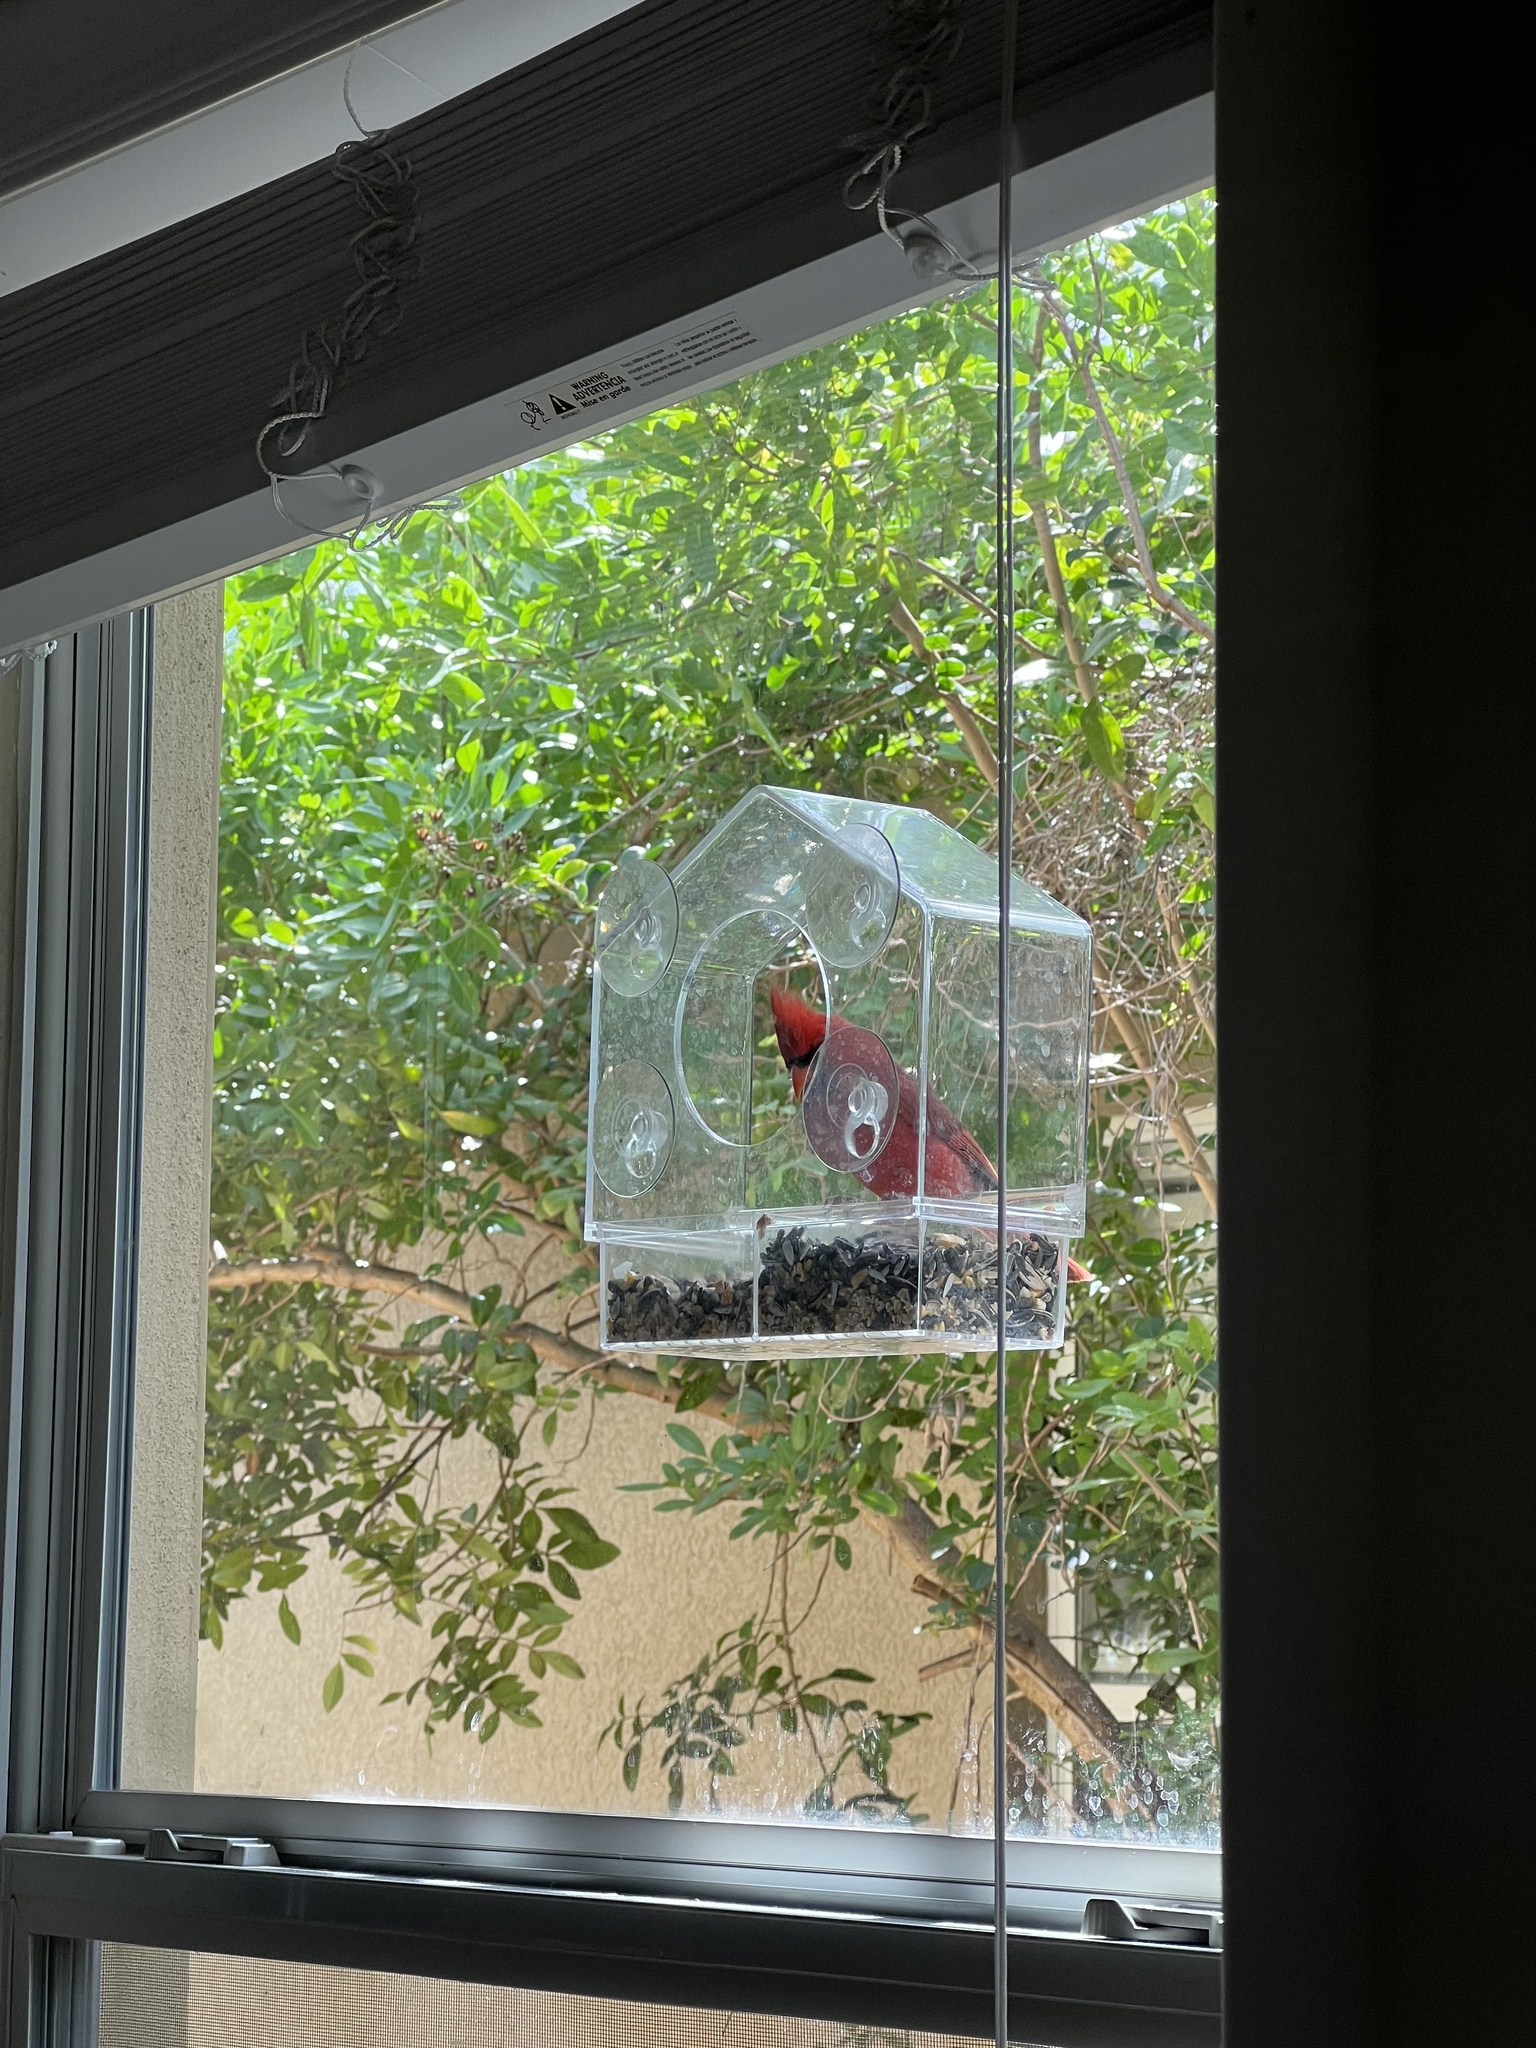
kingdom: Animalia
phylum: Chordata
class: Aves
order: Passeriformes
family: Cardinalidae
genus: Cardinalis
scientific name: Cardinalis cardinalis
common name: Northern cardinal
